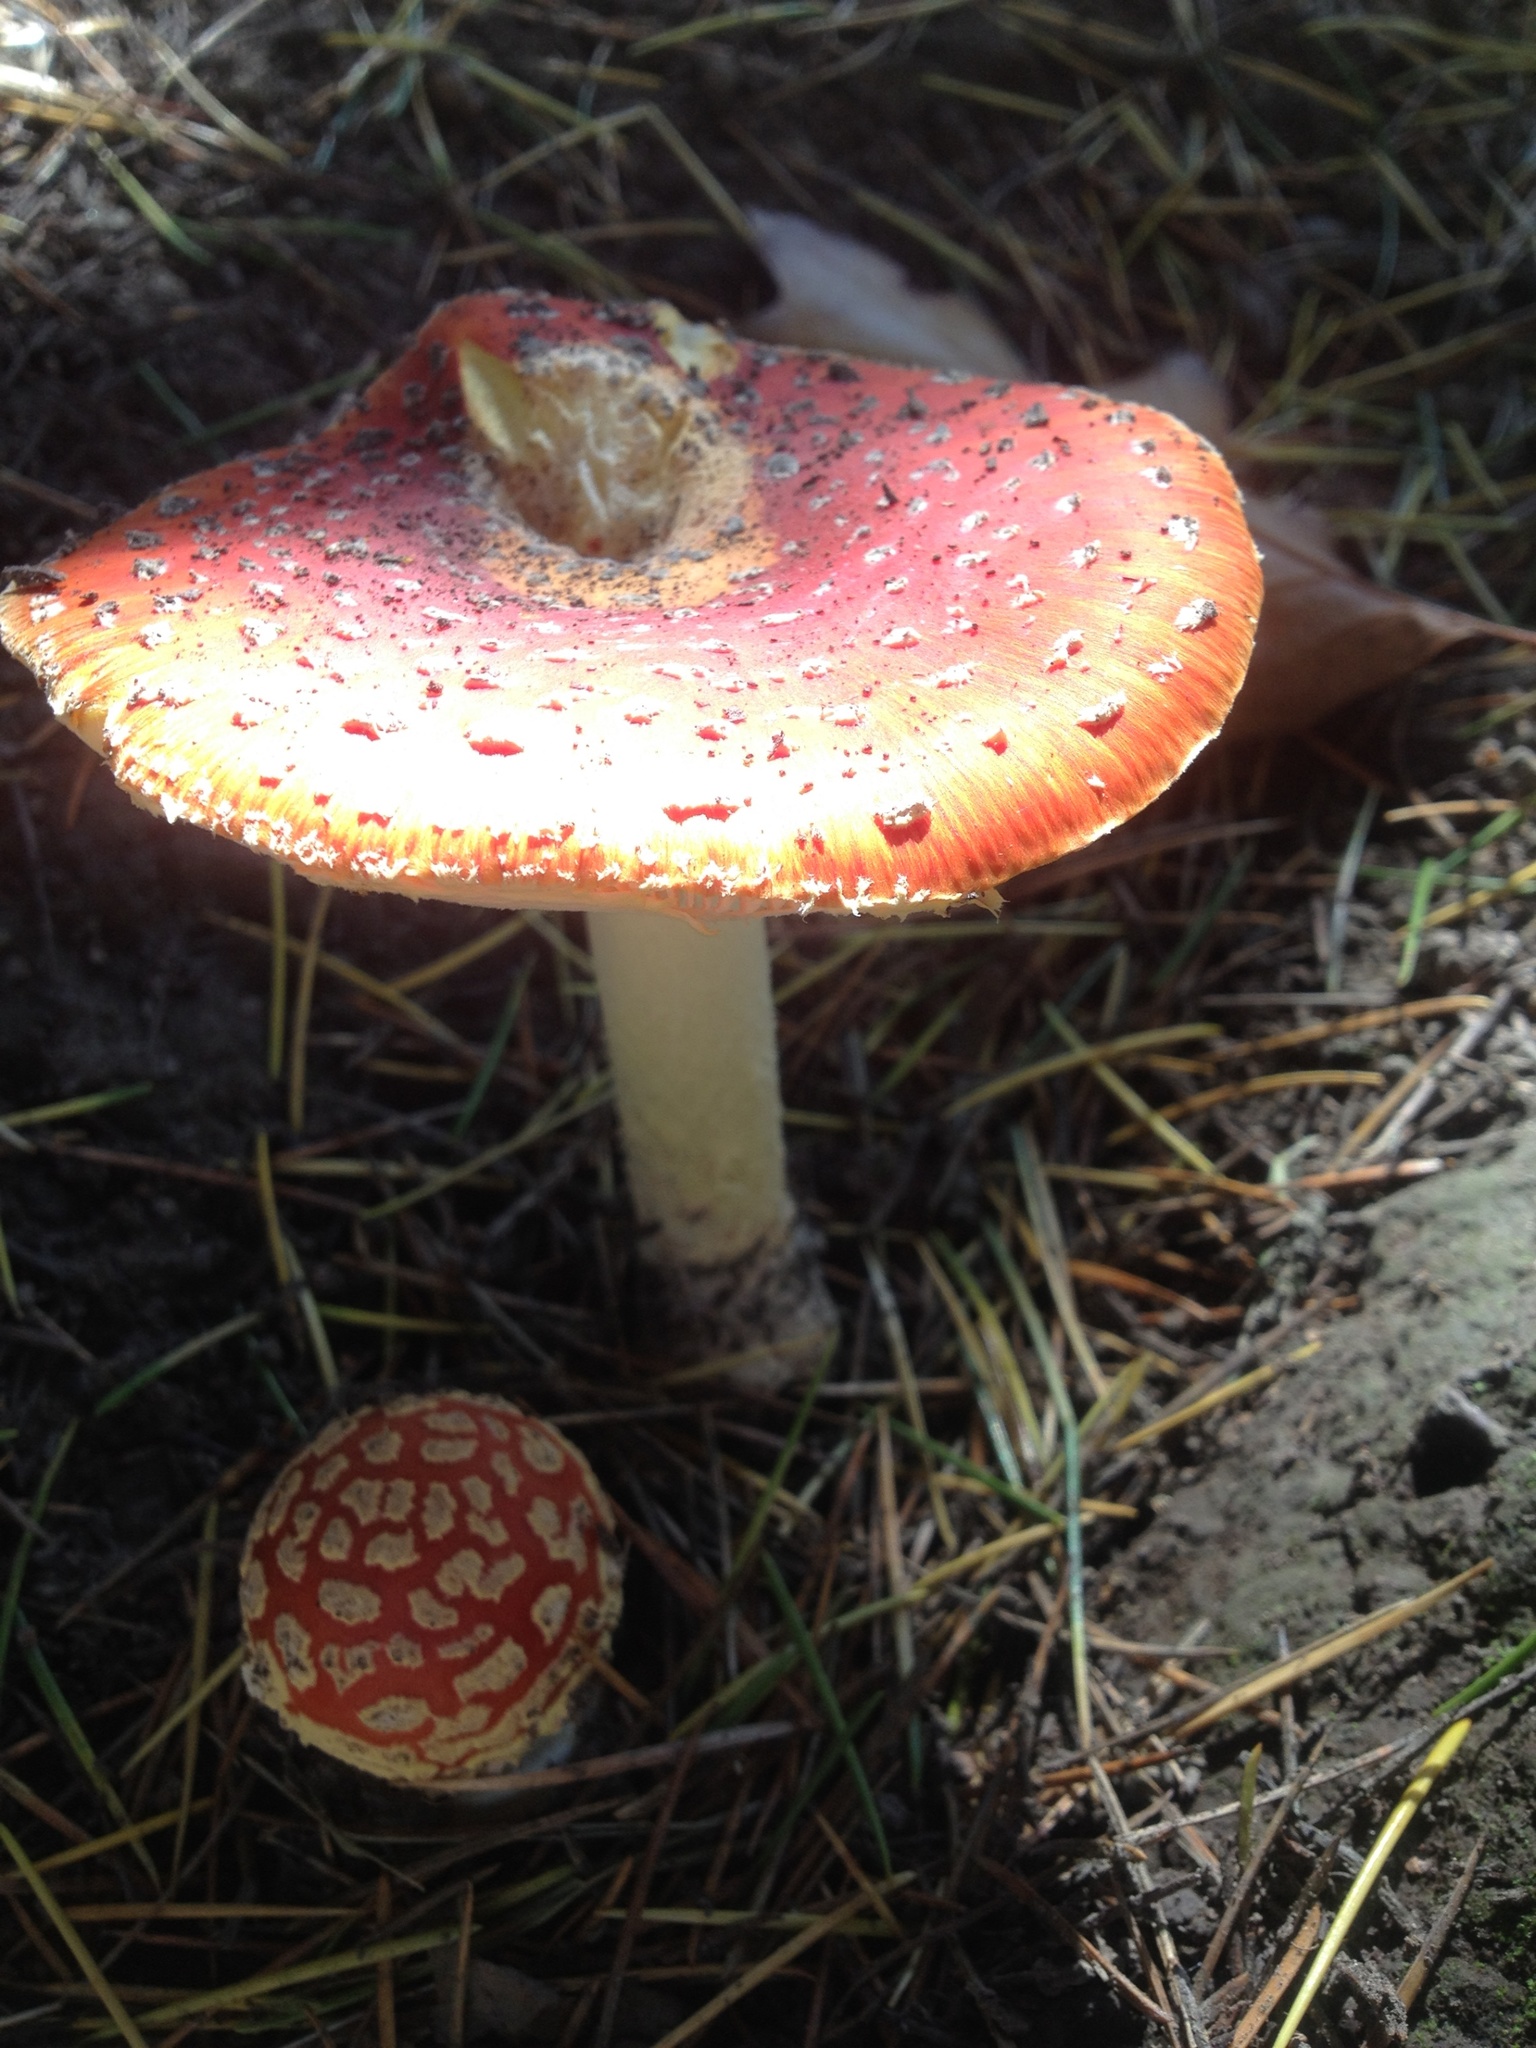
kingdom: Fungi
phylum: Basidiomycota
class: Agaricomycetes
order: Agaricales
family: Amanitaceae
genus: Amanita
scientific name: Amanita muscaria
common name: Fly agaric
